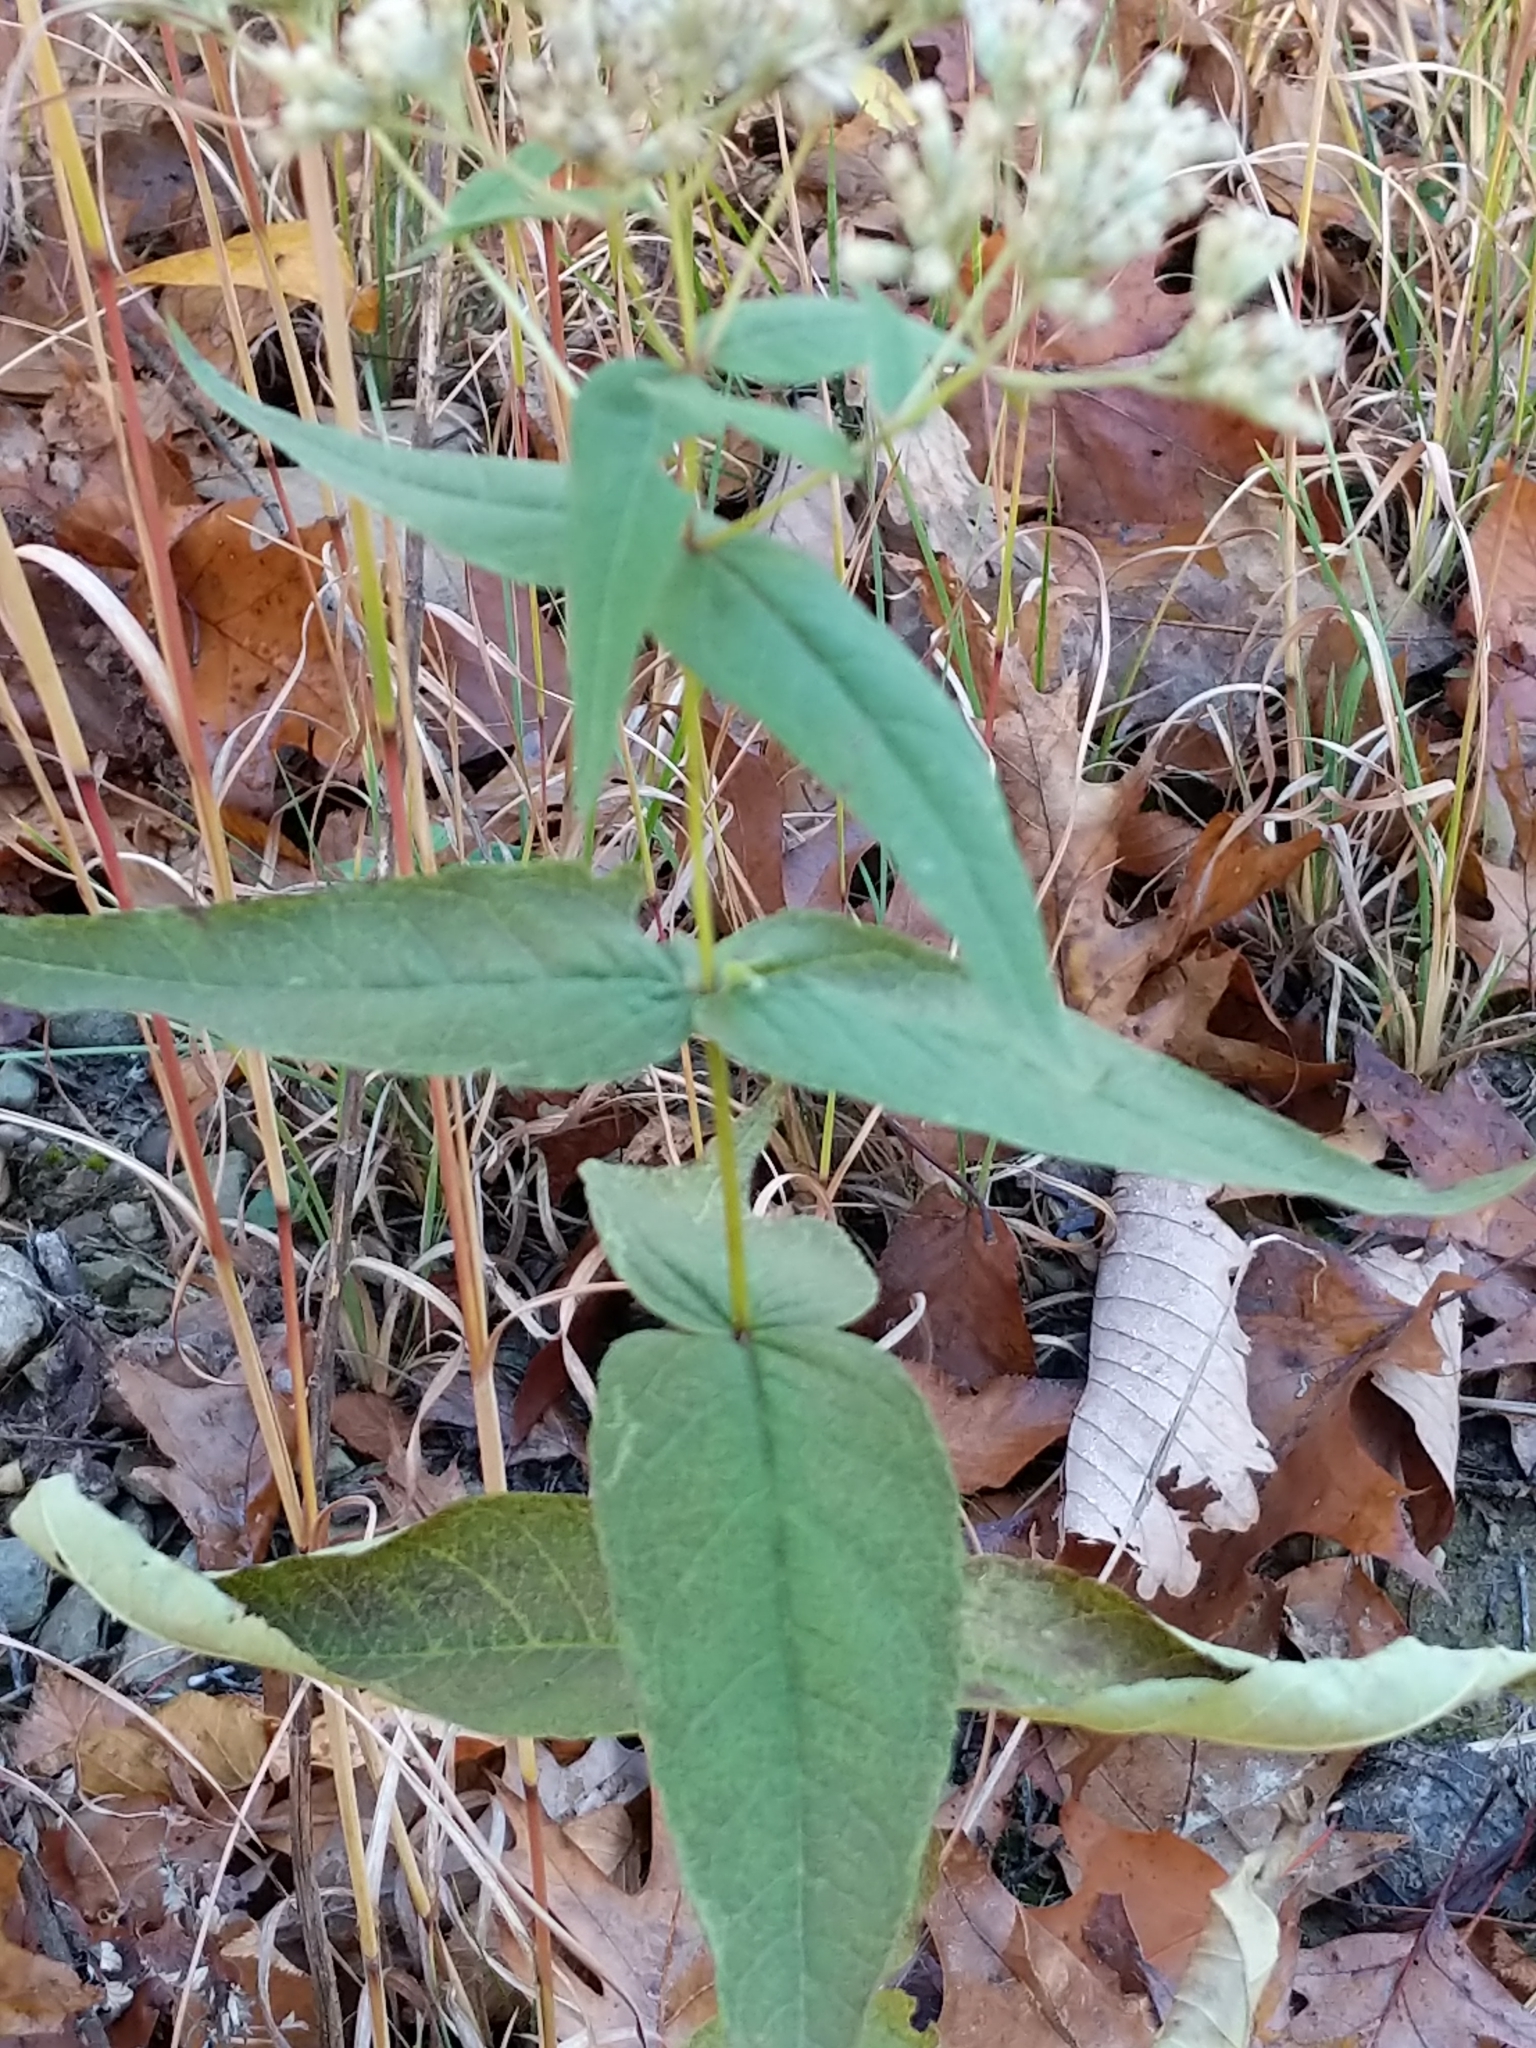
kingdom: Plantae
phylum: Tracheophyta
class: Magnoliopsida
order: Asterales
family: Asteraceae
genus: Eupatorium
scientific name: Eupatorium sessilifolium
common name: Upland boneset
